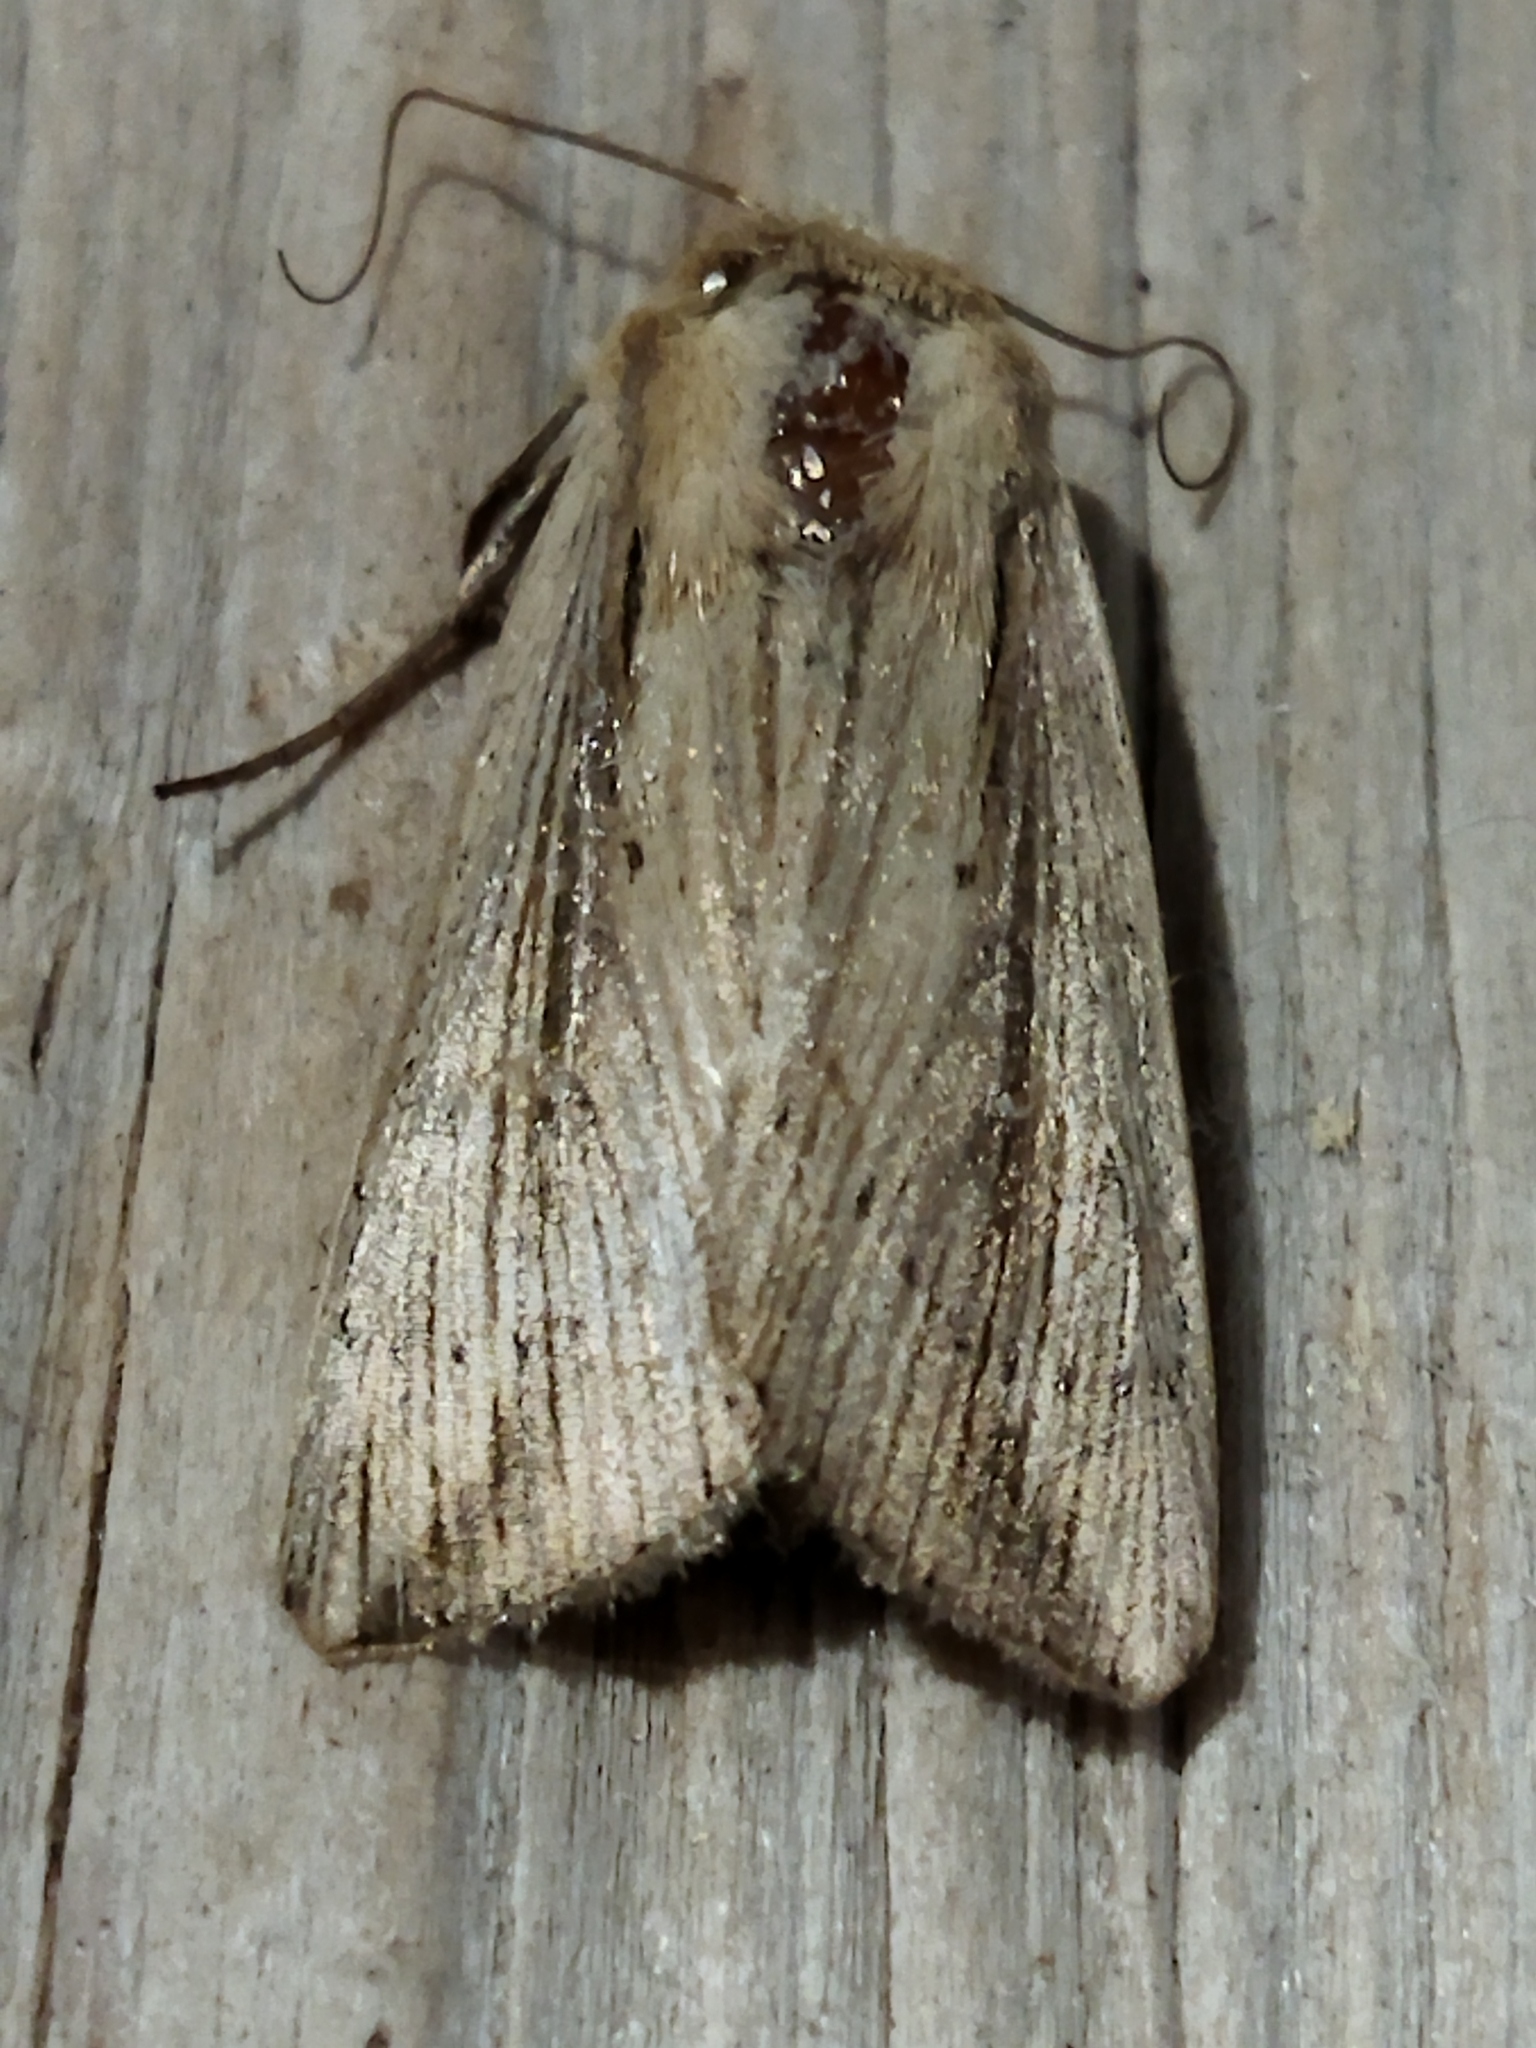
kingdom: Animalia
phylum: Arthropoda
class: Insecta
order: Lepidoptera
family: Noctuidae
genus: Leucania
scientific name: Leucania loreyi
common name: The cosmopolitan
